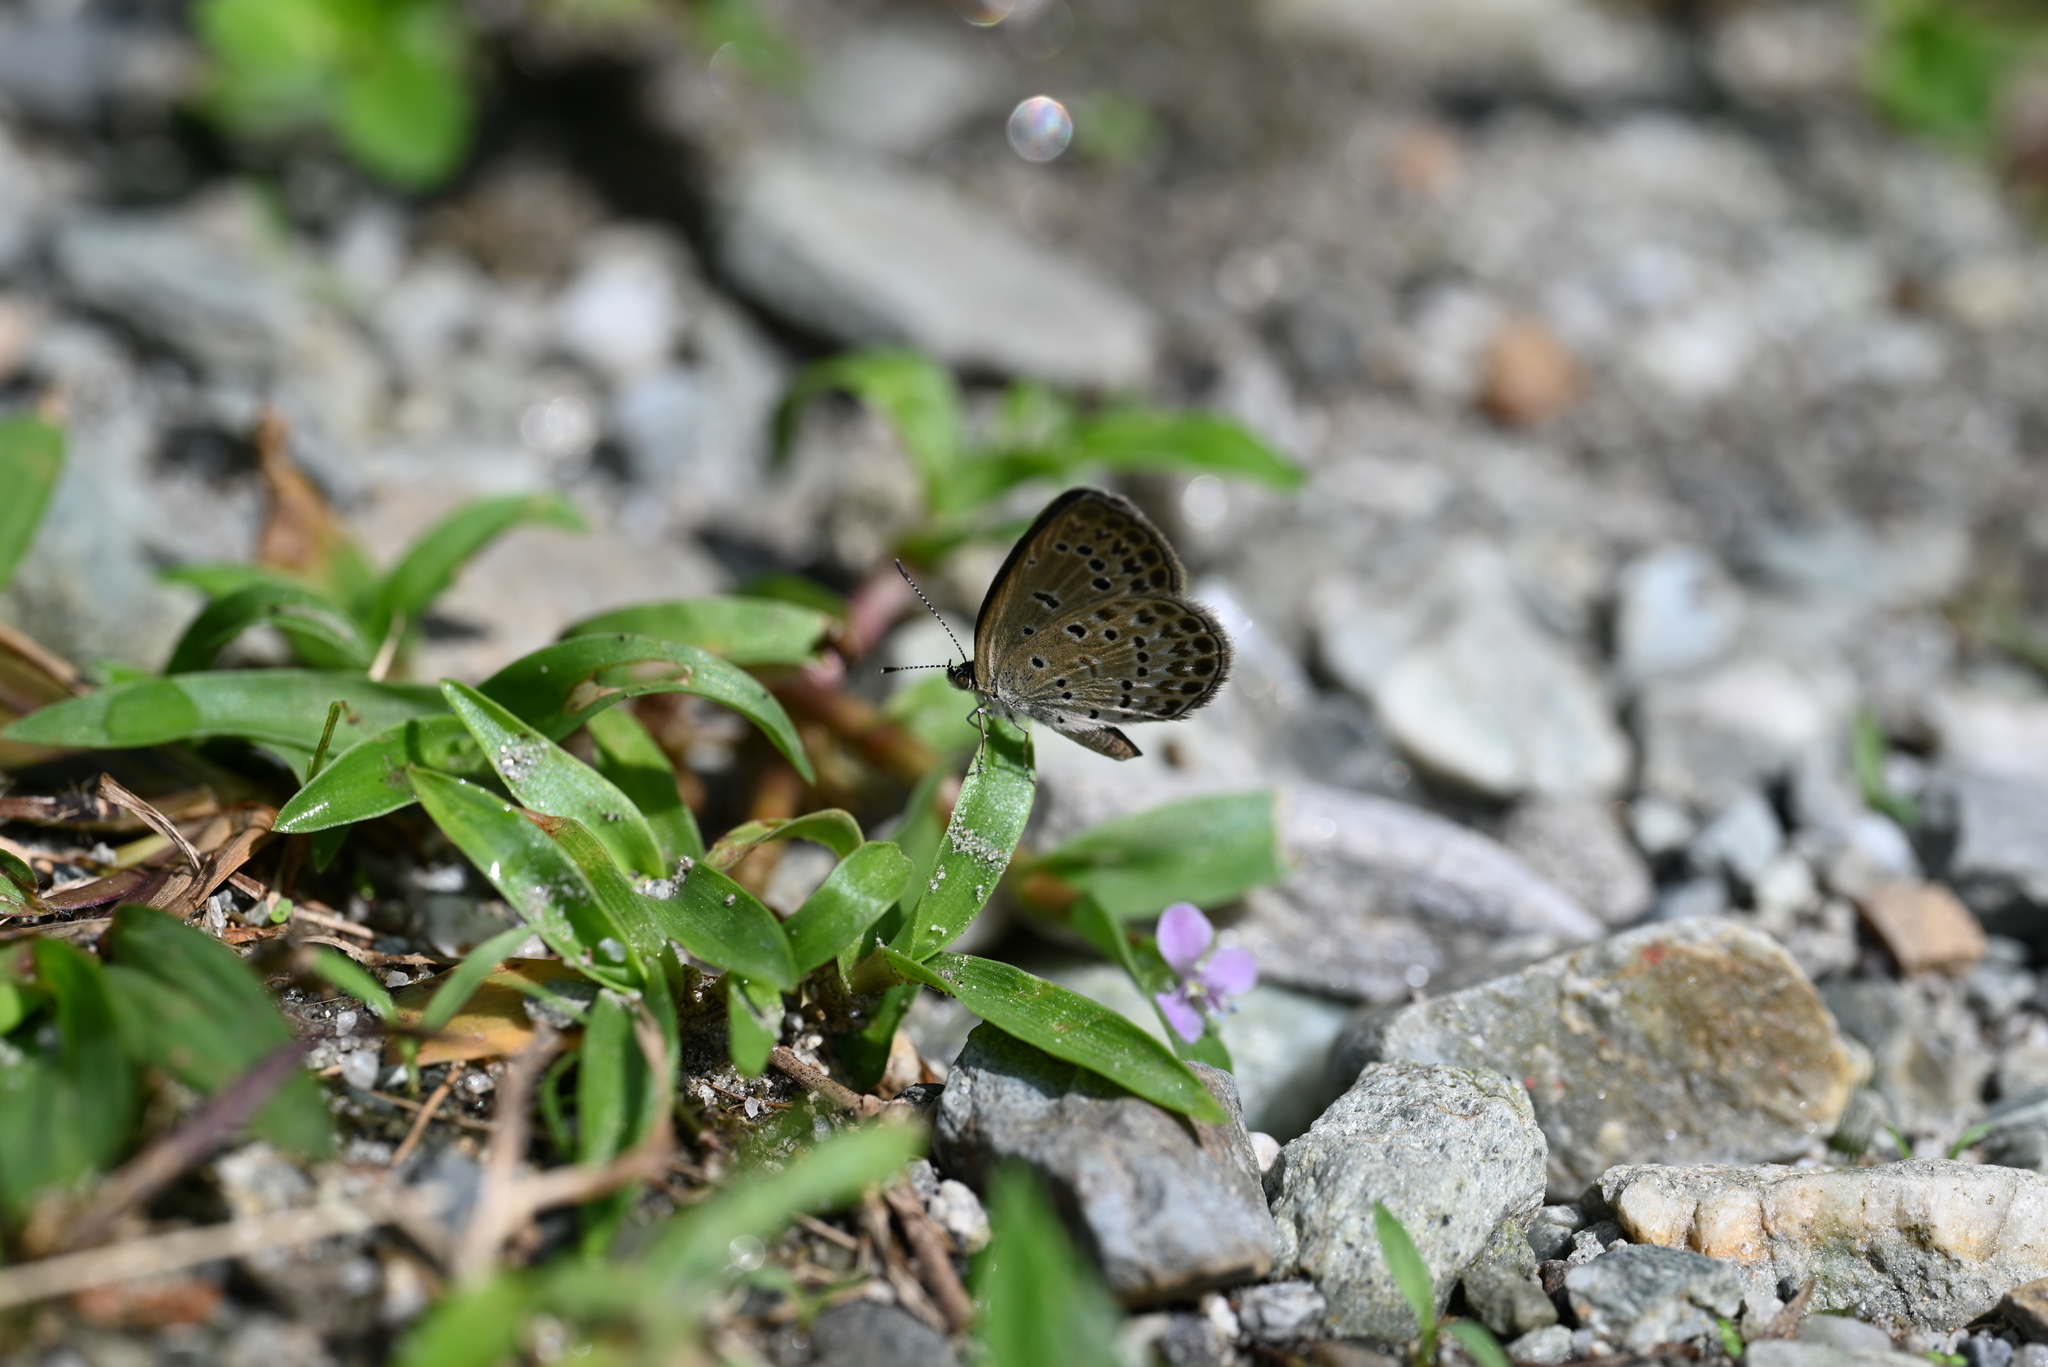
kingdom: Animalia
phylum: Arthropoda
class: Insecta
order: Lepidoptera
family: Lycaenidae
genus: Pseudozizeeria
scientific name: Pseudozizeeria maha
